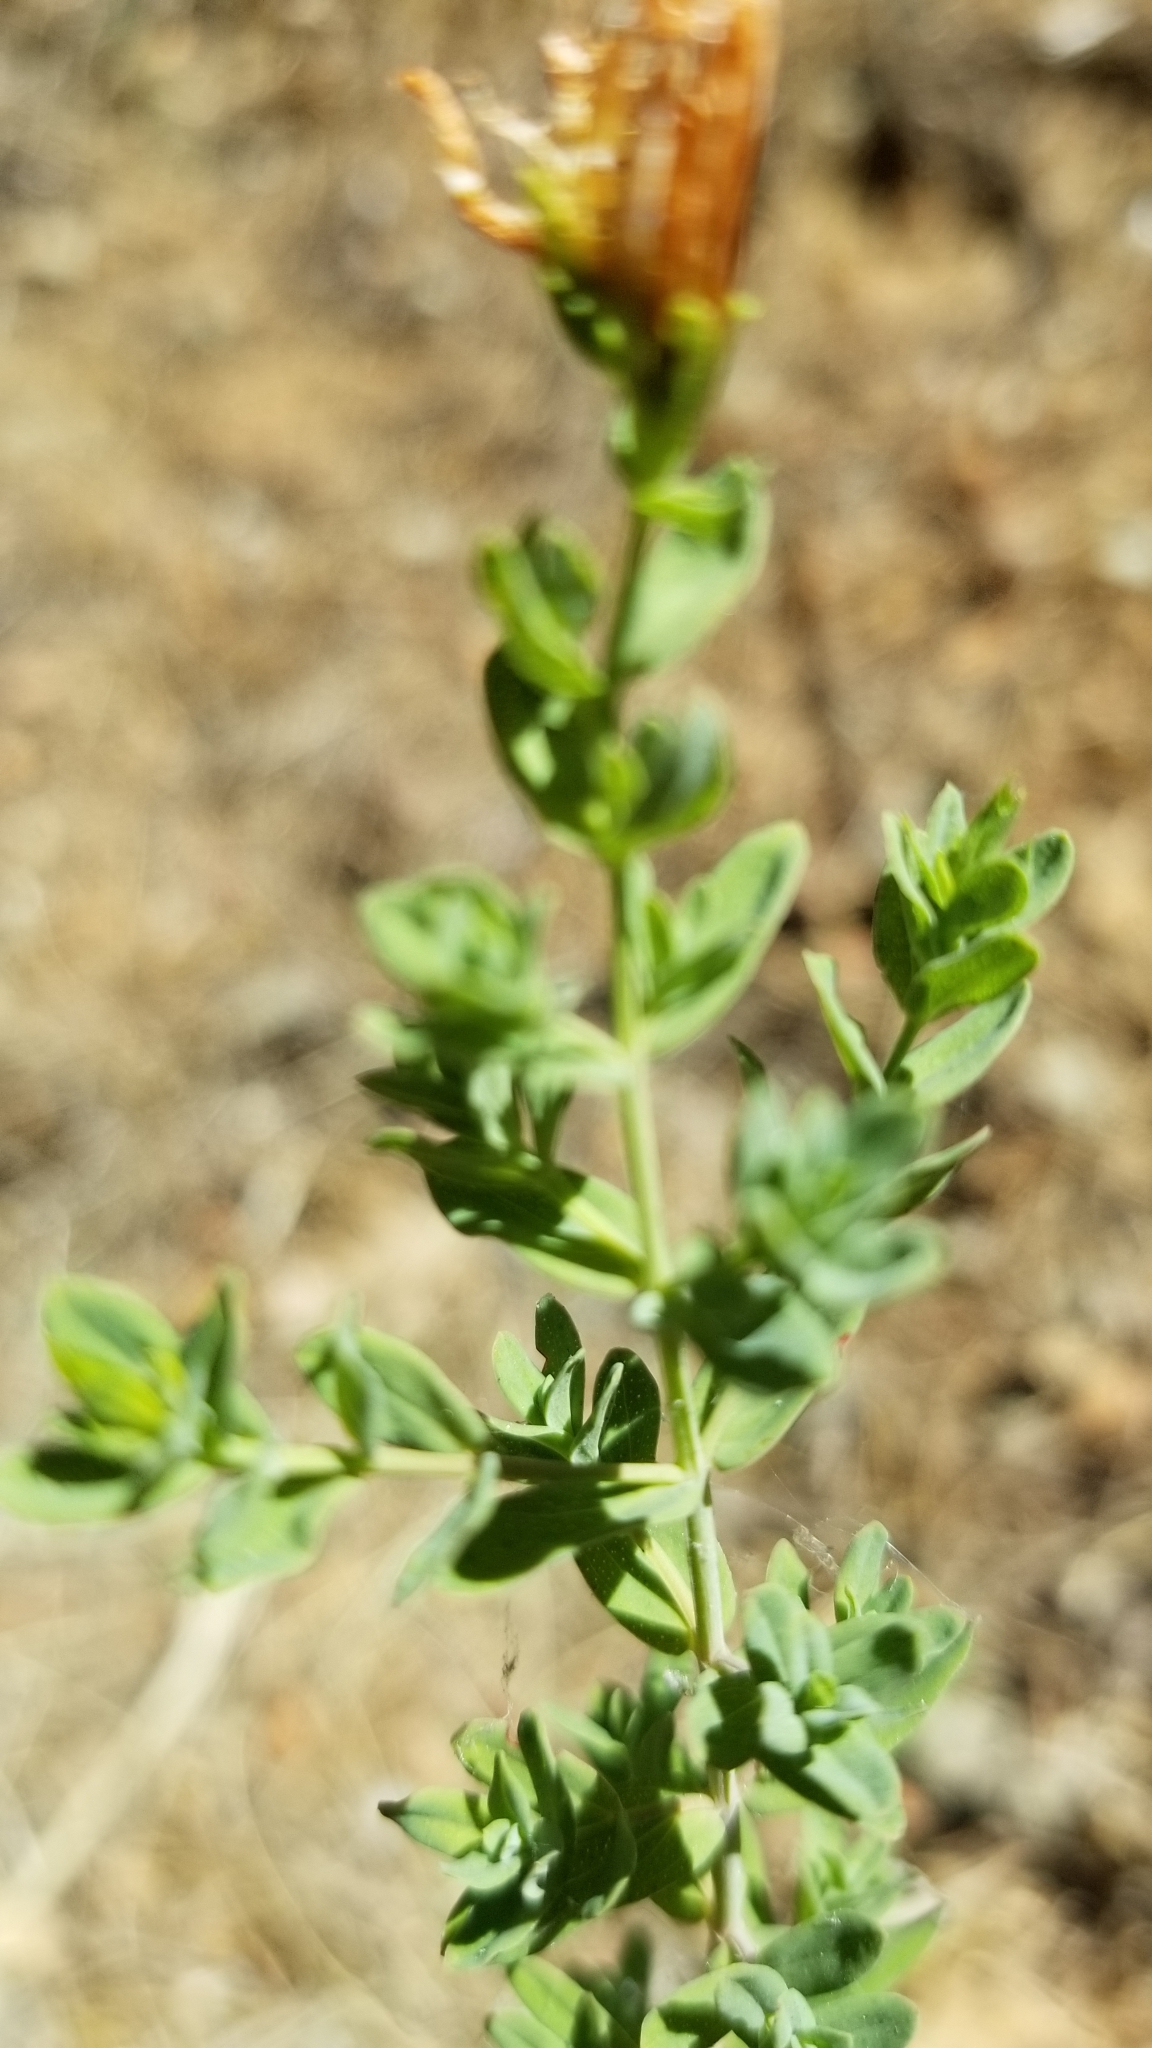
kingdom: Plantae
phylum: Tracheophyta
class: Magnoliopsida
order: Malpighiales
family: Hypericaceae
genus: Hypericum
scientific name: Hypericum perforatum
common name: Common st. johnswort
